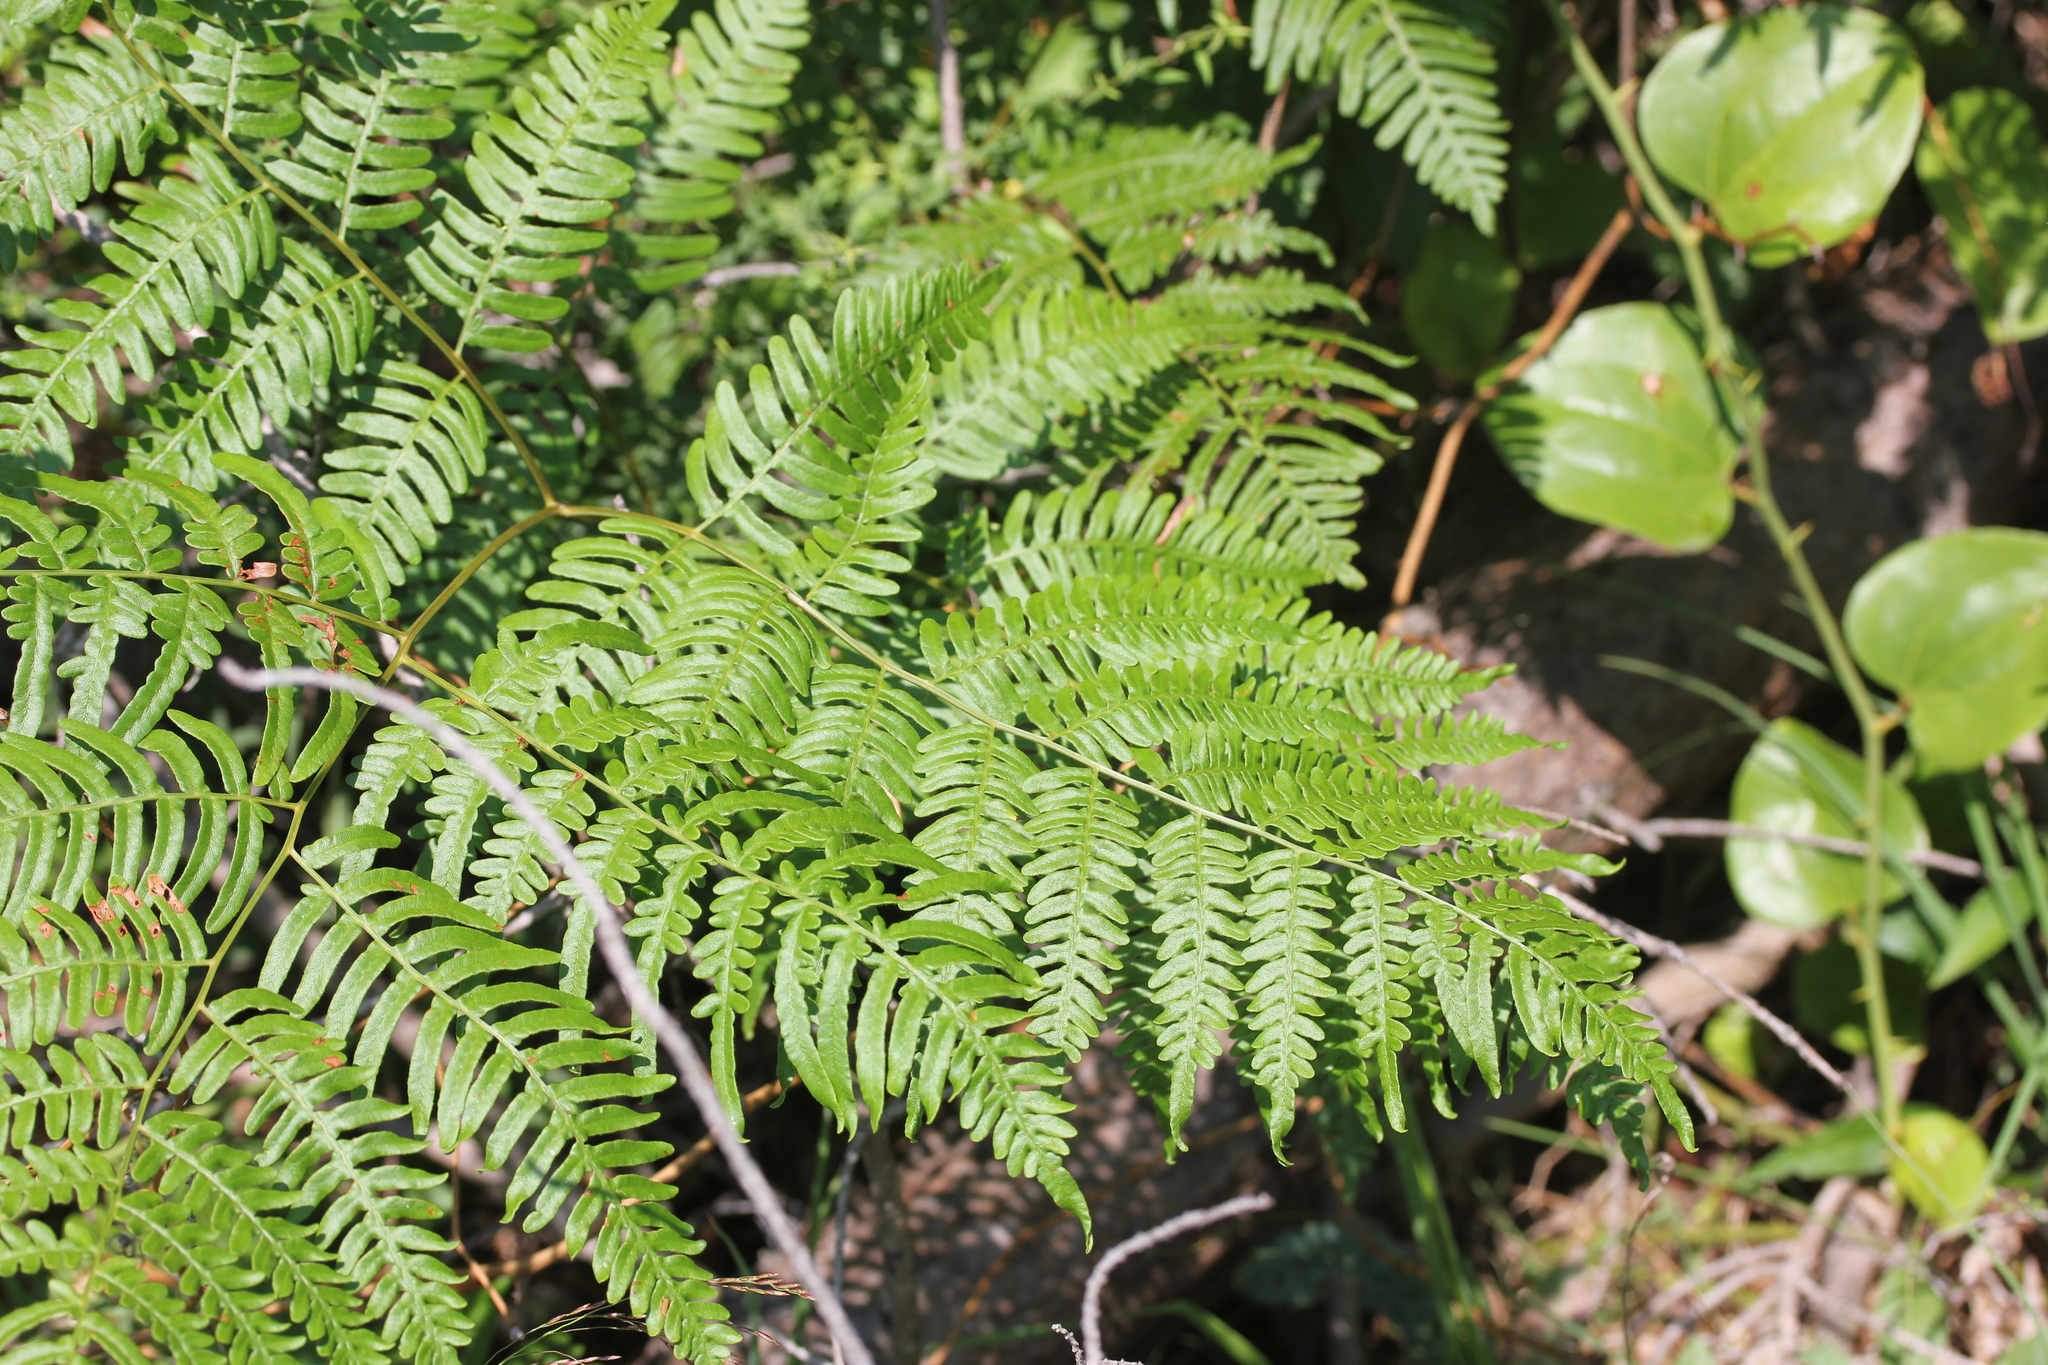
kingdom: Plantae
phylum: Tracheophyta
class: Polypodiopsida
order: Polypodiales
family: Dennstaedtiaceae
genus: Pteridium
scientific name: Pteridium aquilinum
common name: Bracken
